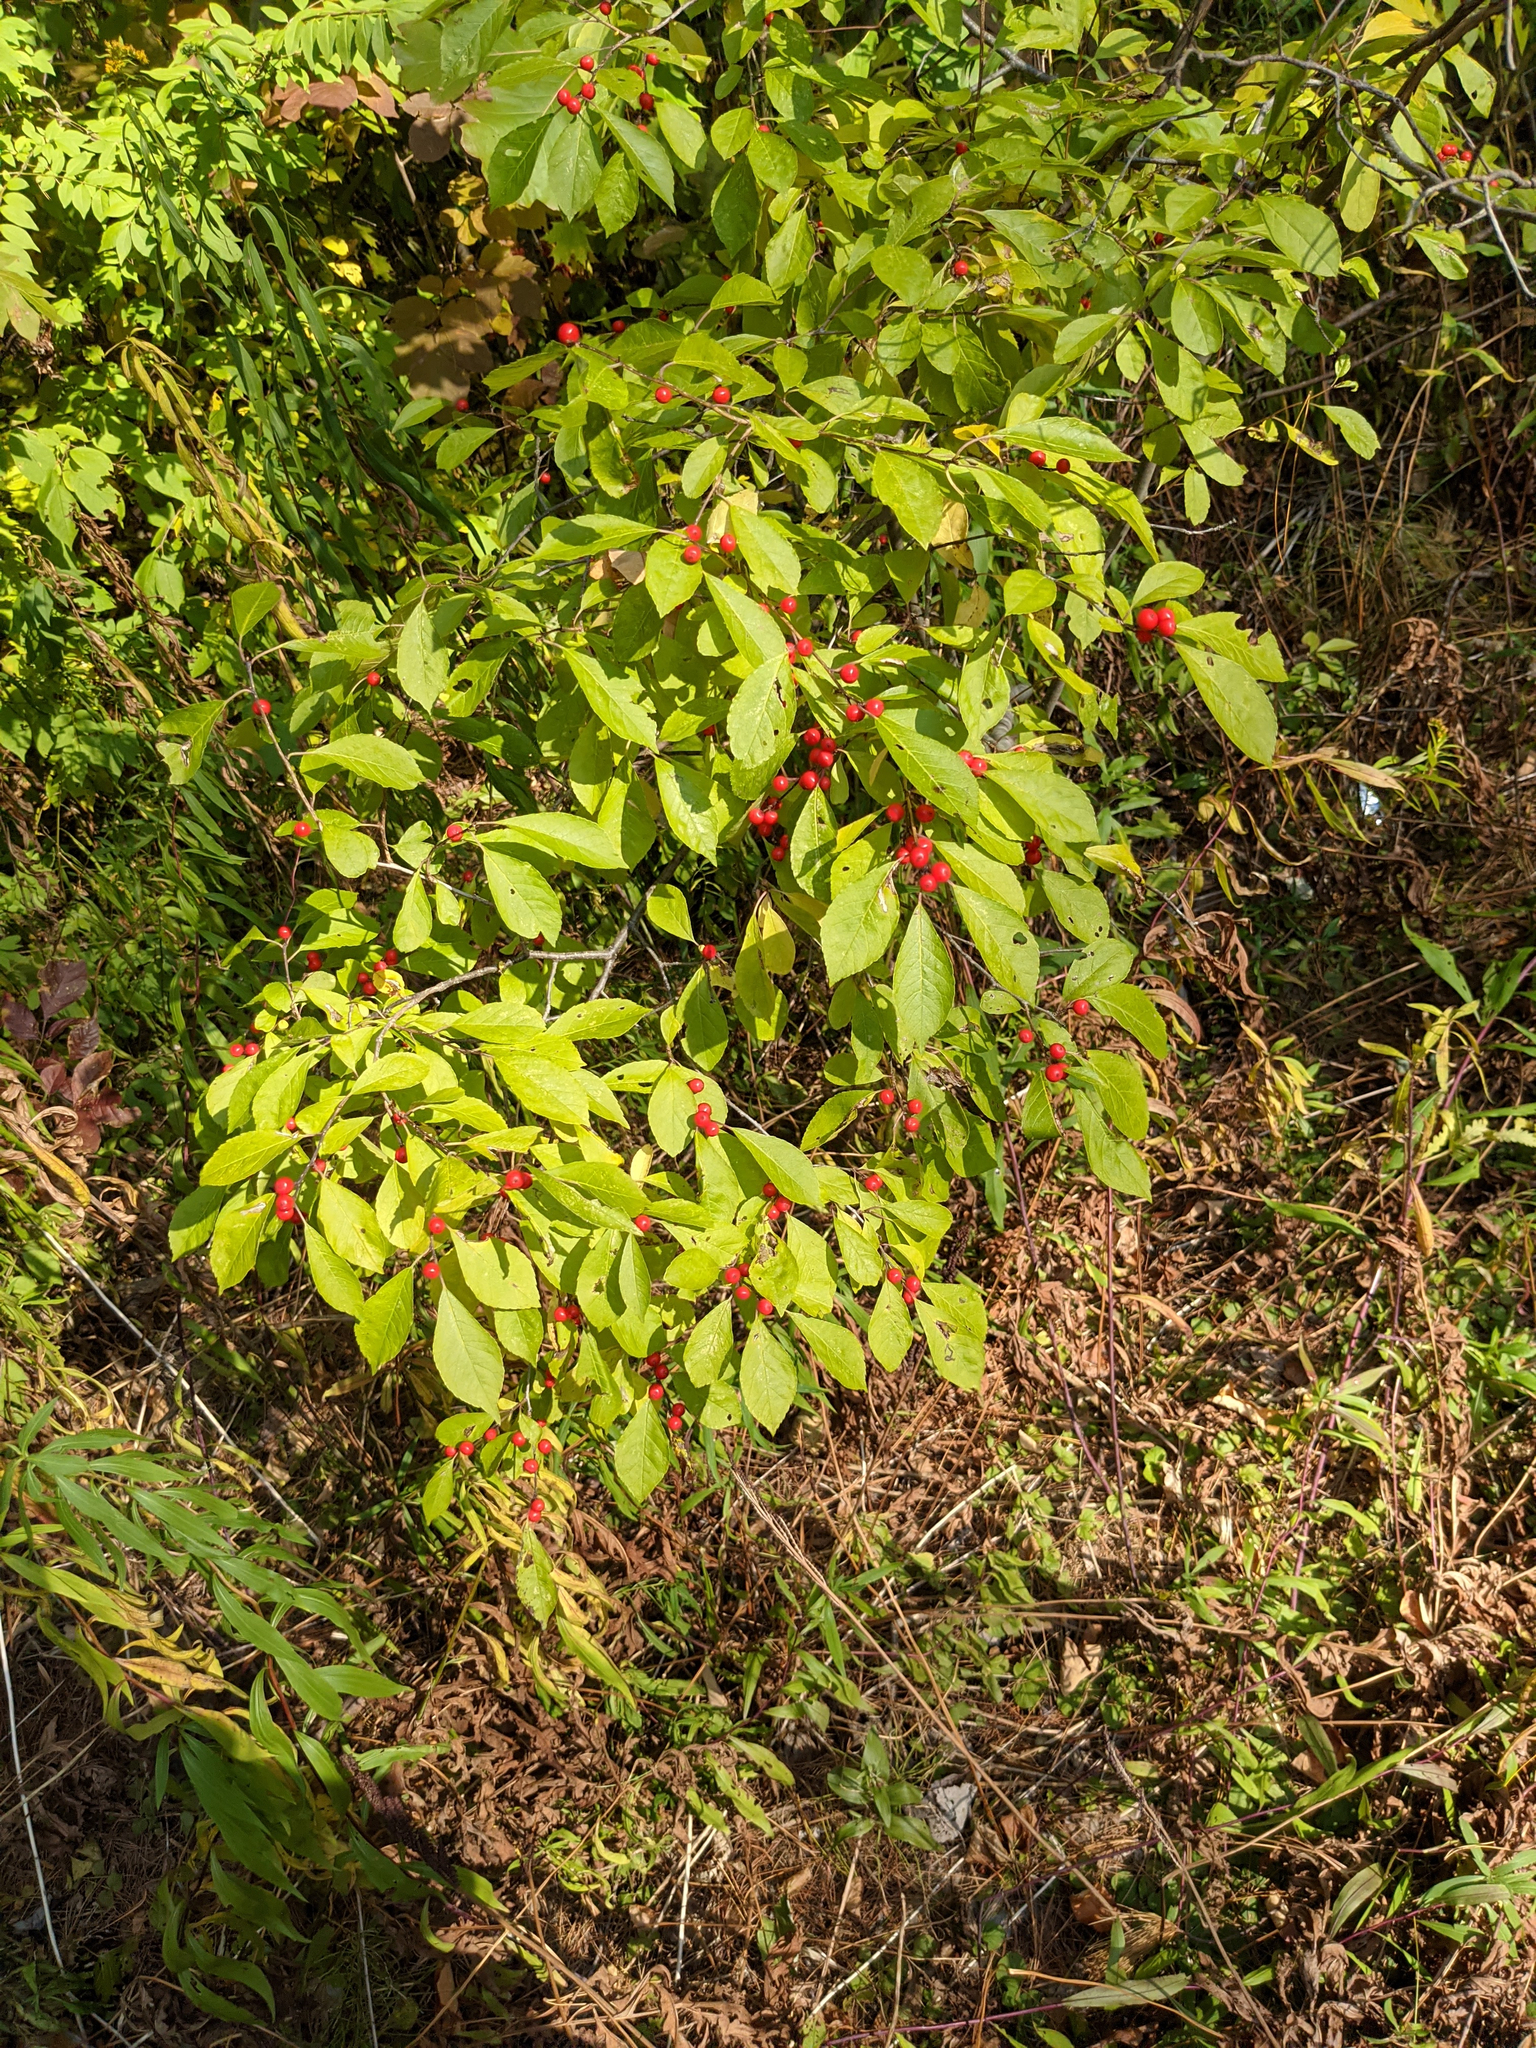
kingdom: Plantae
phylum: Tracheophyta
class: Magnoliopsida
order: Aquifoliales
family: Aquifoliaceae
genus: Ilex
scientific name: Ilex verticillata
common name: Virginia winterberry
